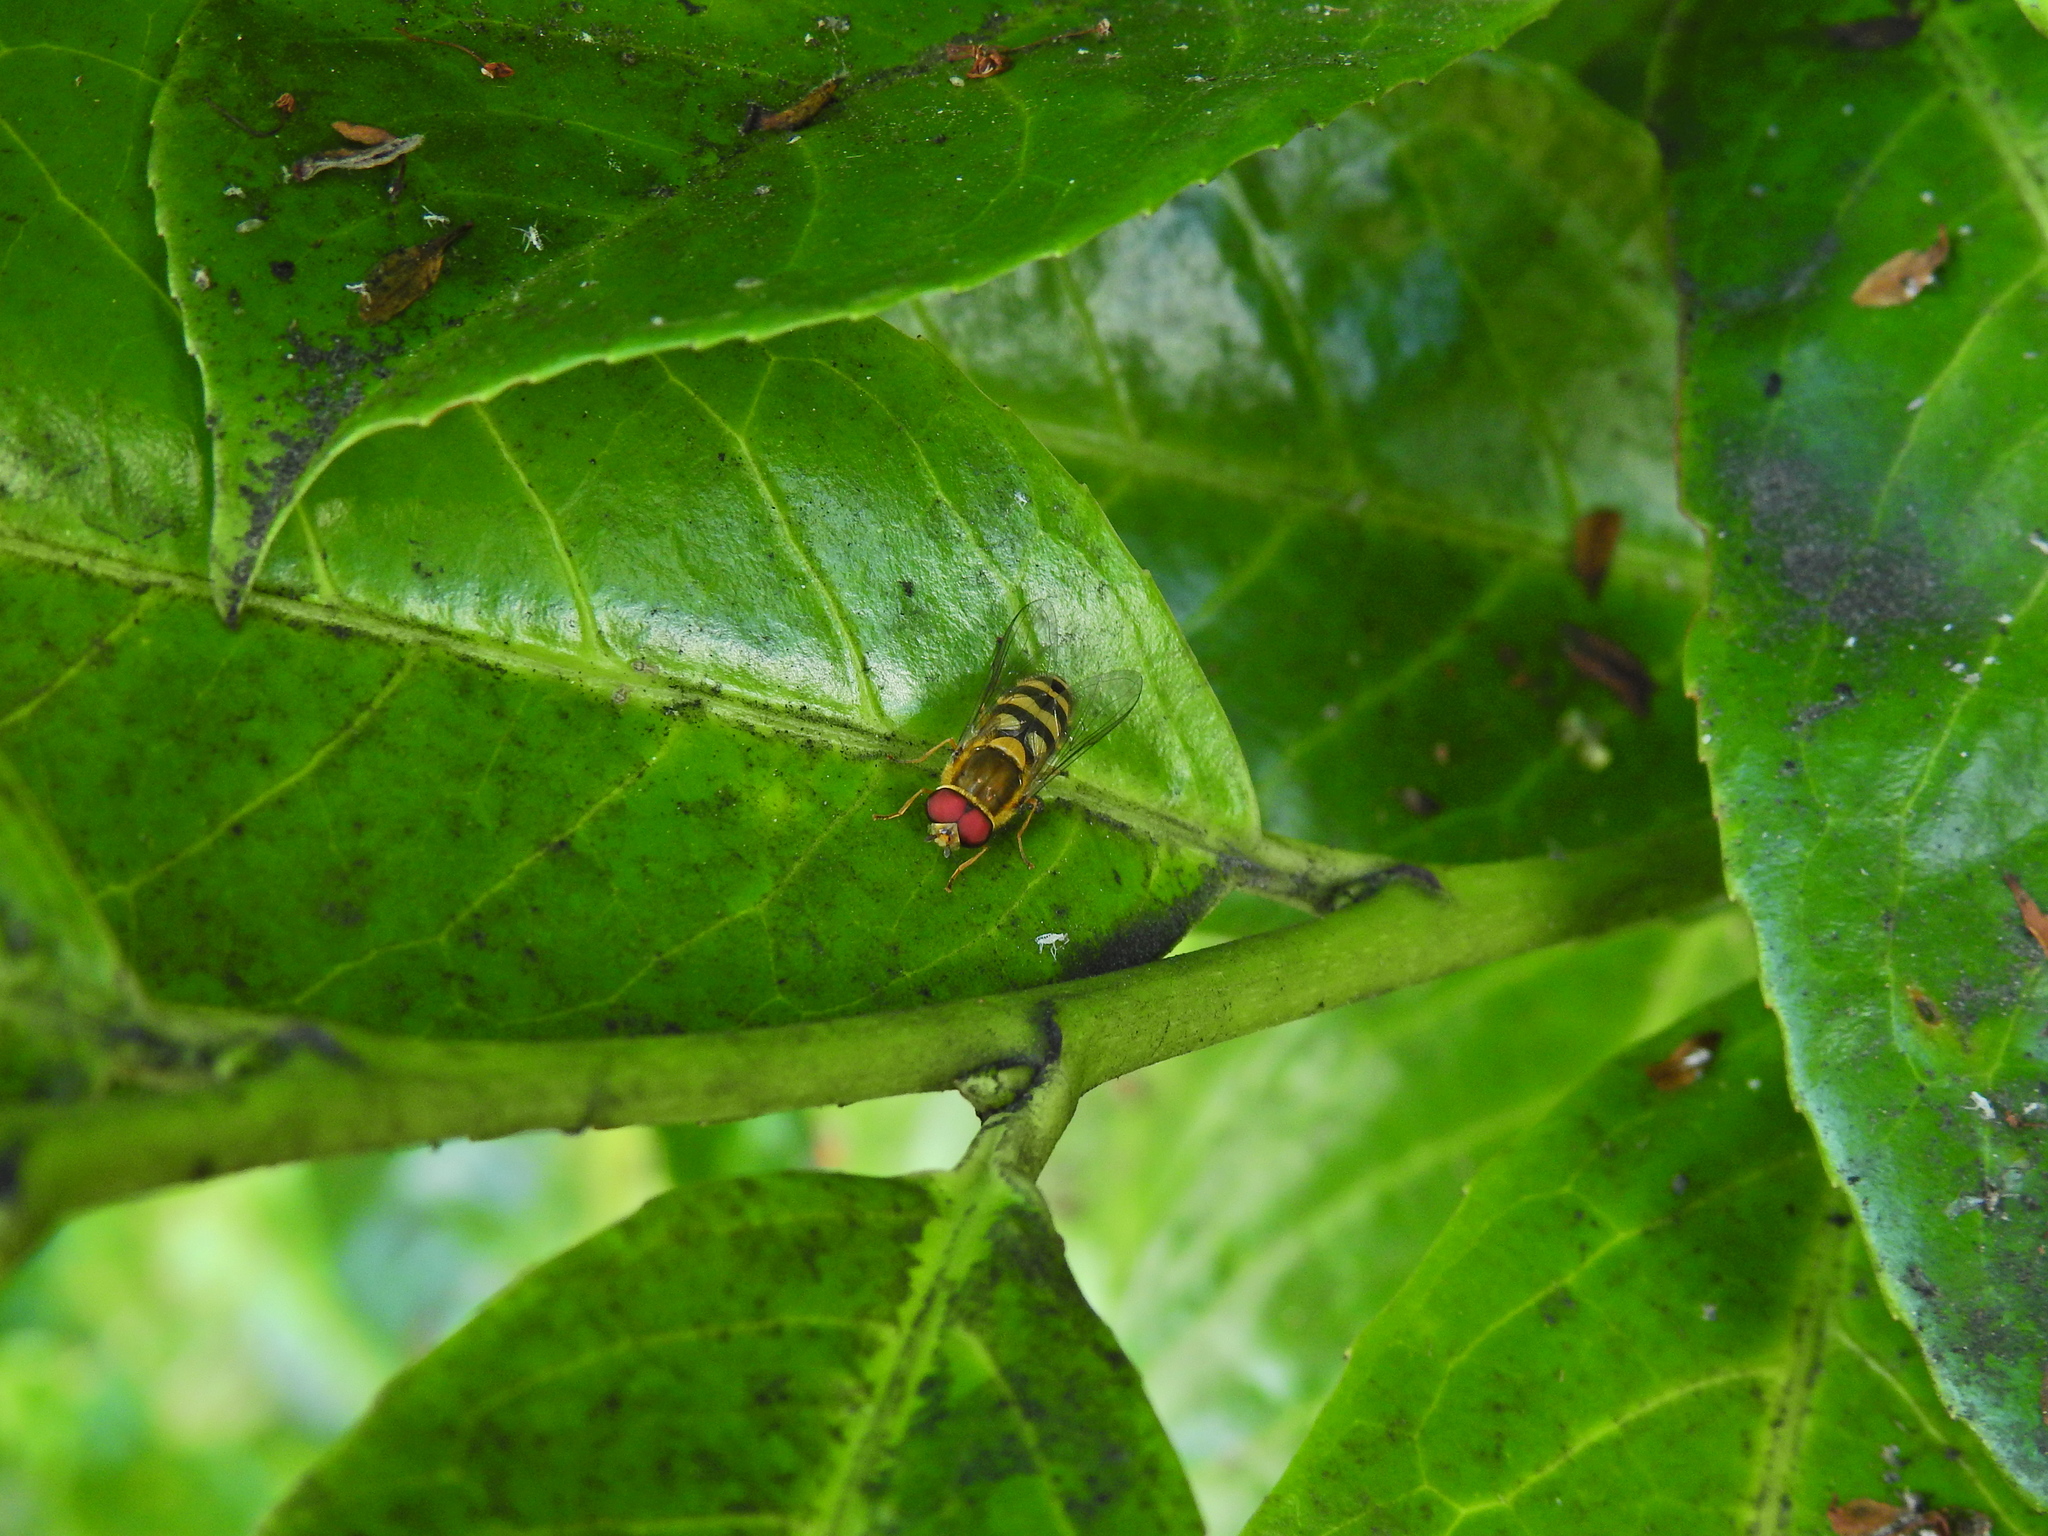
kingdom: Animalia
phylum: Arthropoda
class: Insecta
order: Diptera
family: Syrphidae
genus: Syrphus
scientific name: Syrphus
